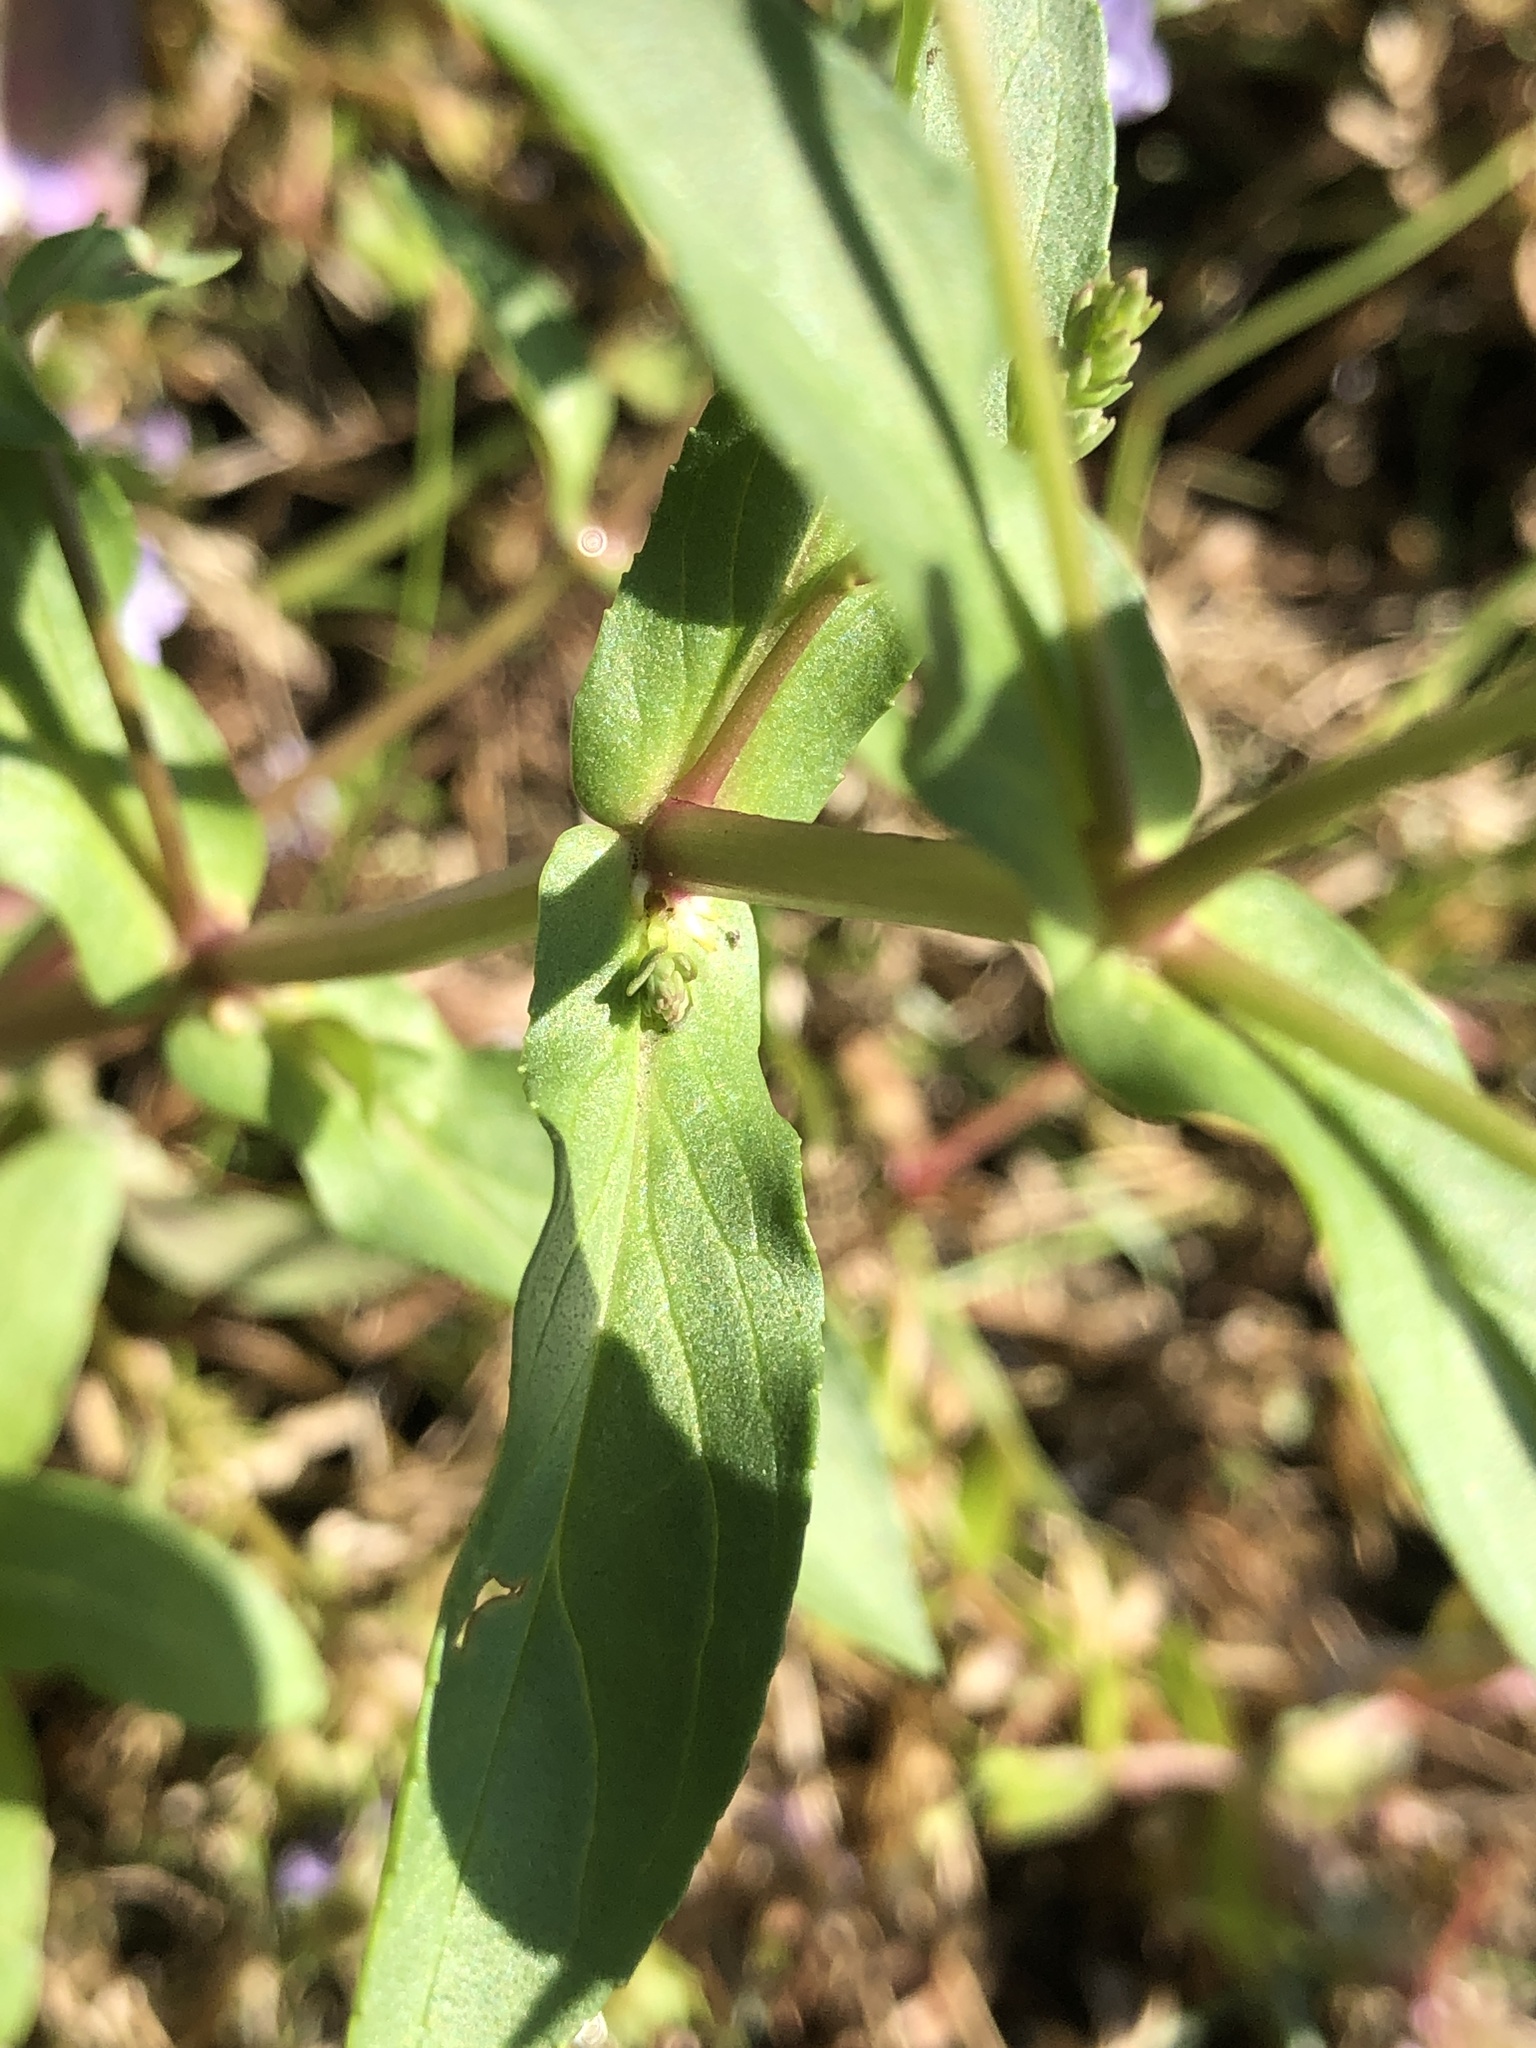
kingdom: Plantae
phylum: Tracheophyta
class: Magnoliopsida
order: Lamiales
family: Plantaginaceae
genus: Veronica
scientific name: Veronica anagallis-aquatica
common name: Water speedwell
